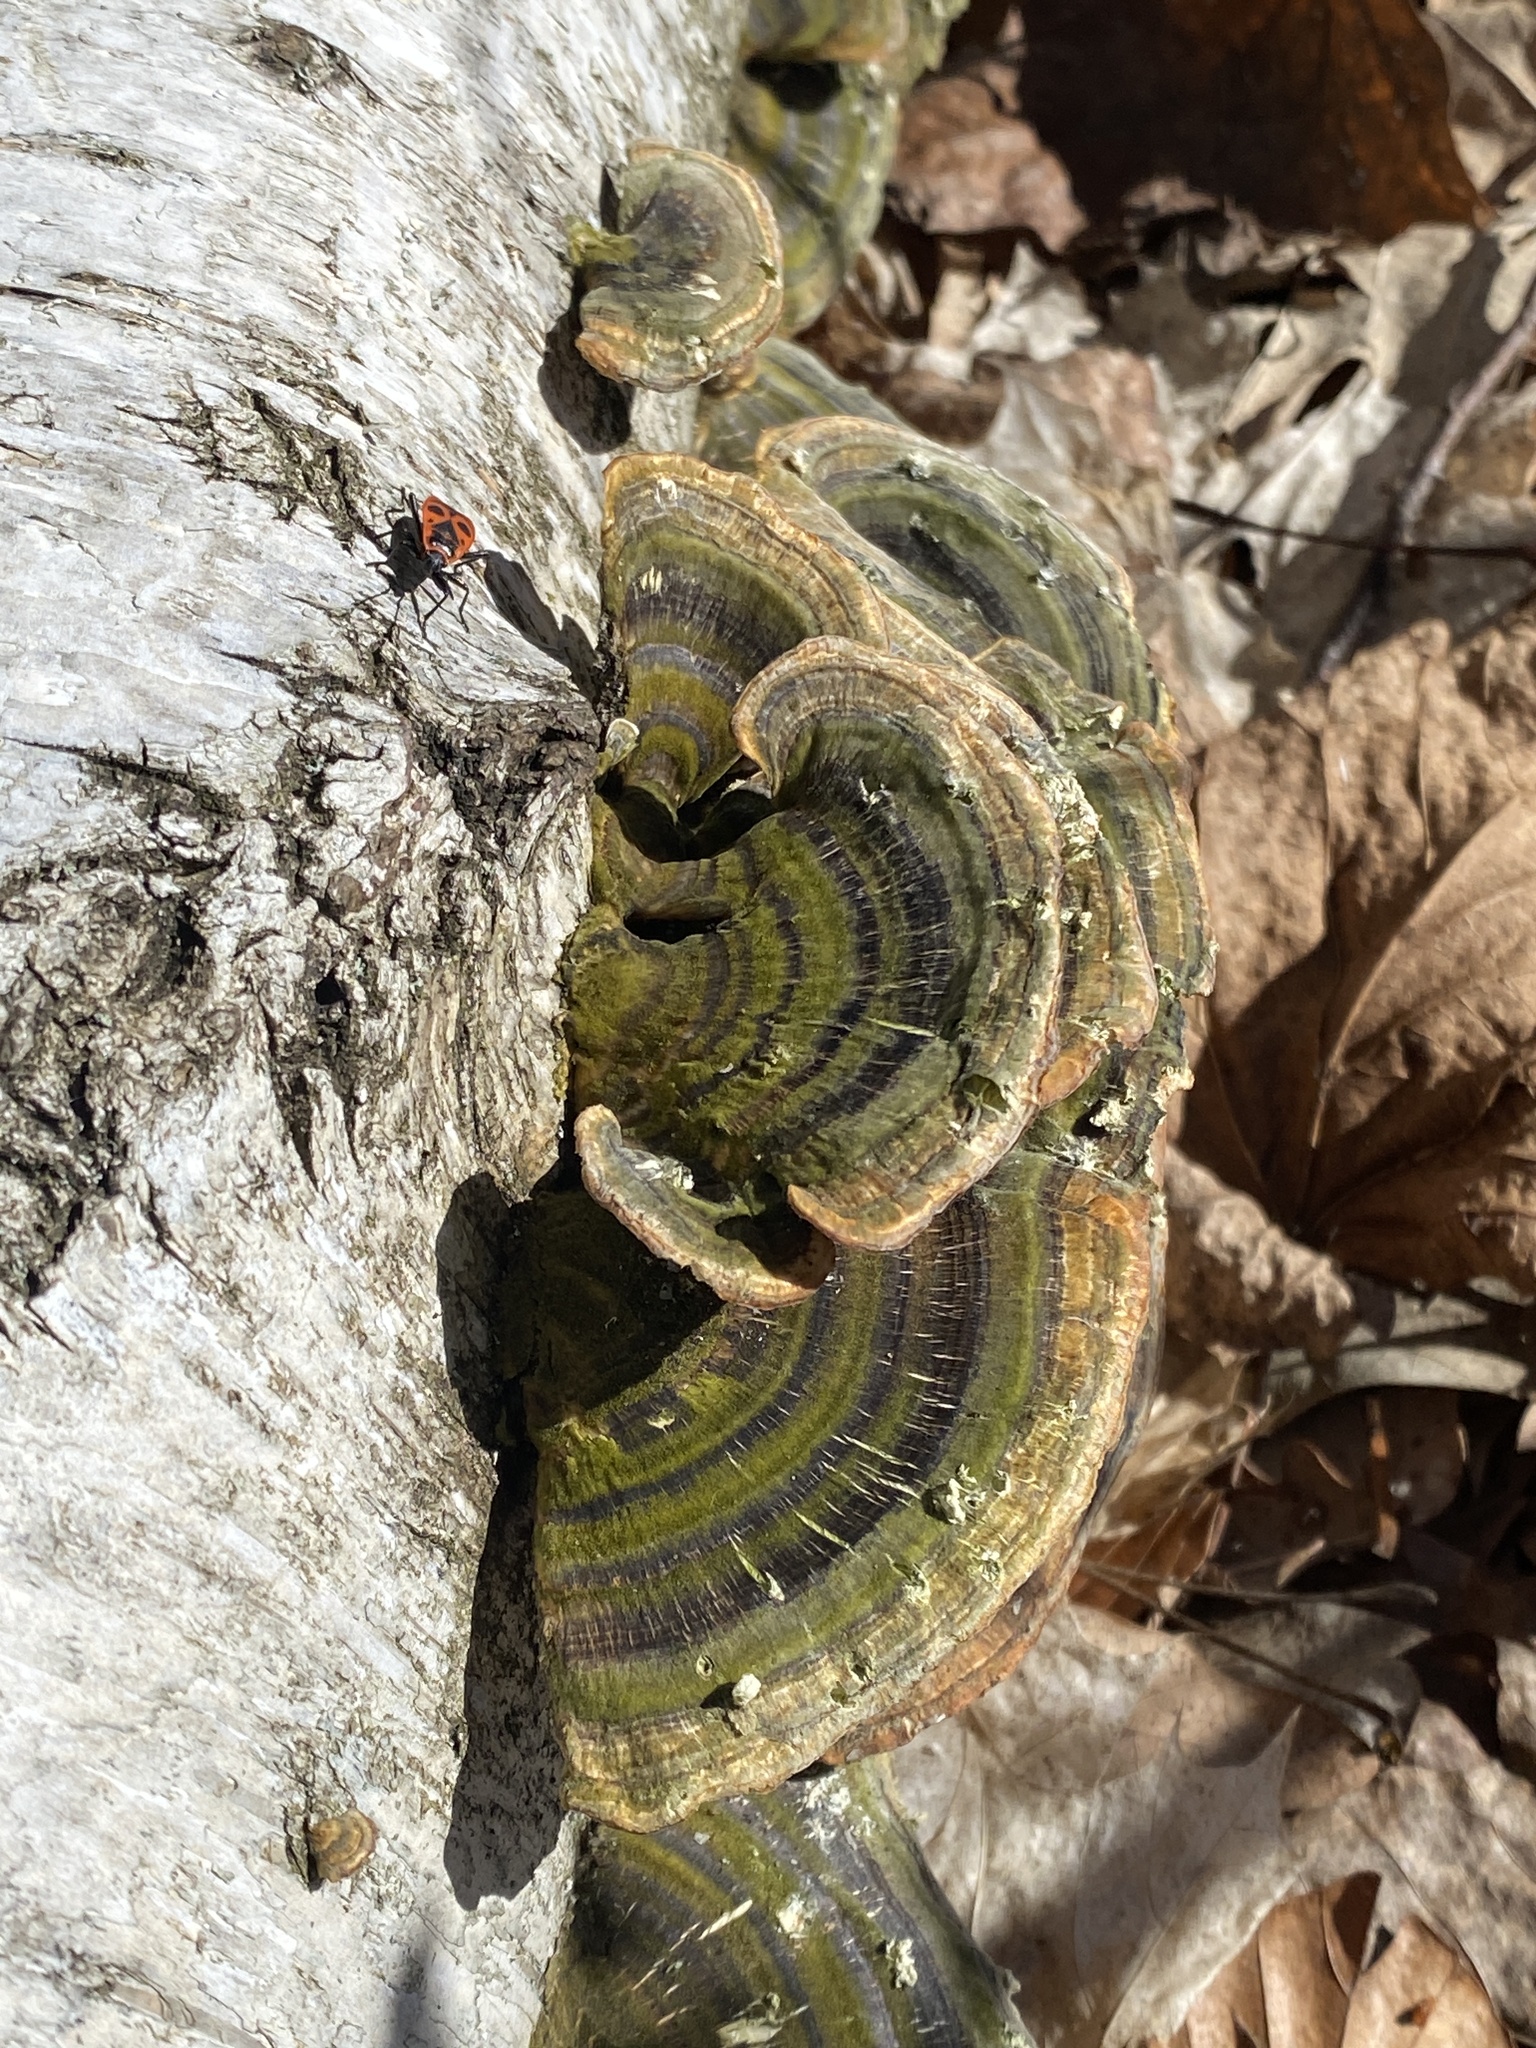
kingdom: Fungi
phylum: Basidiomycota
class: Agaricomycetes
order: Polyporales
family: Polyporaceae
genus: Trametes
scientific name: Trametes versicolor
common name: Turkeytail
